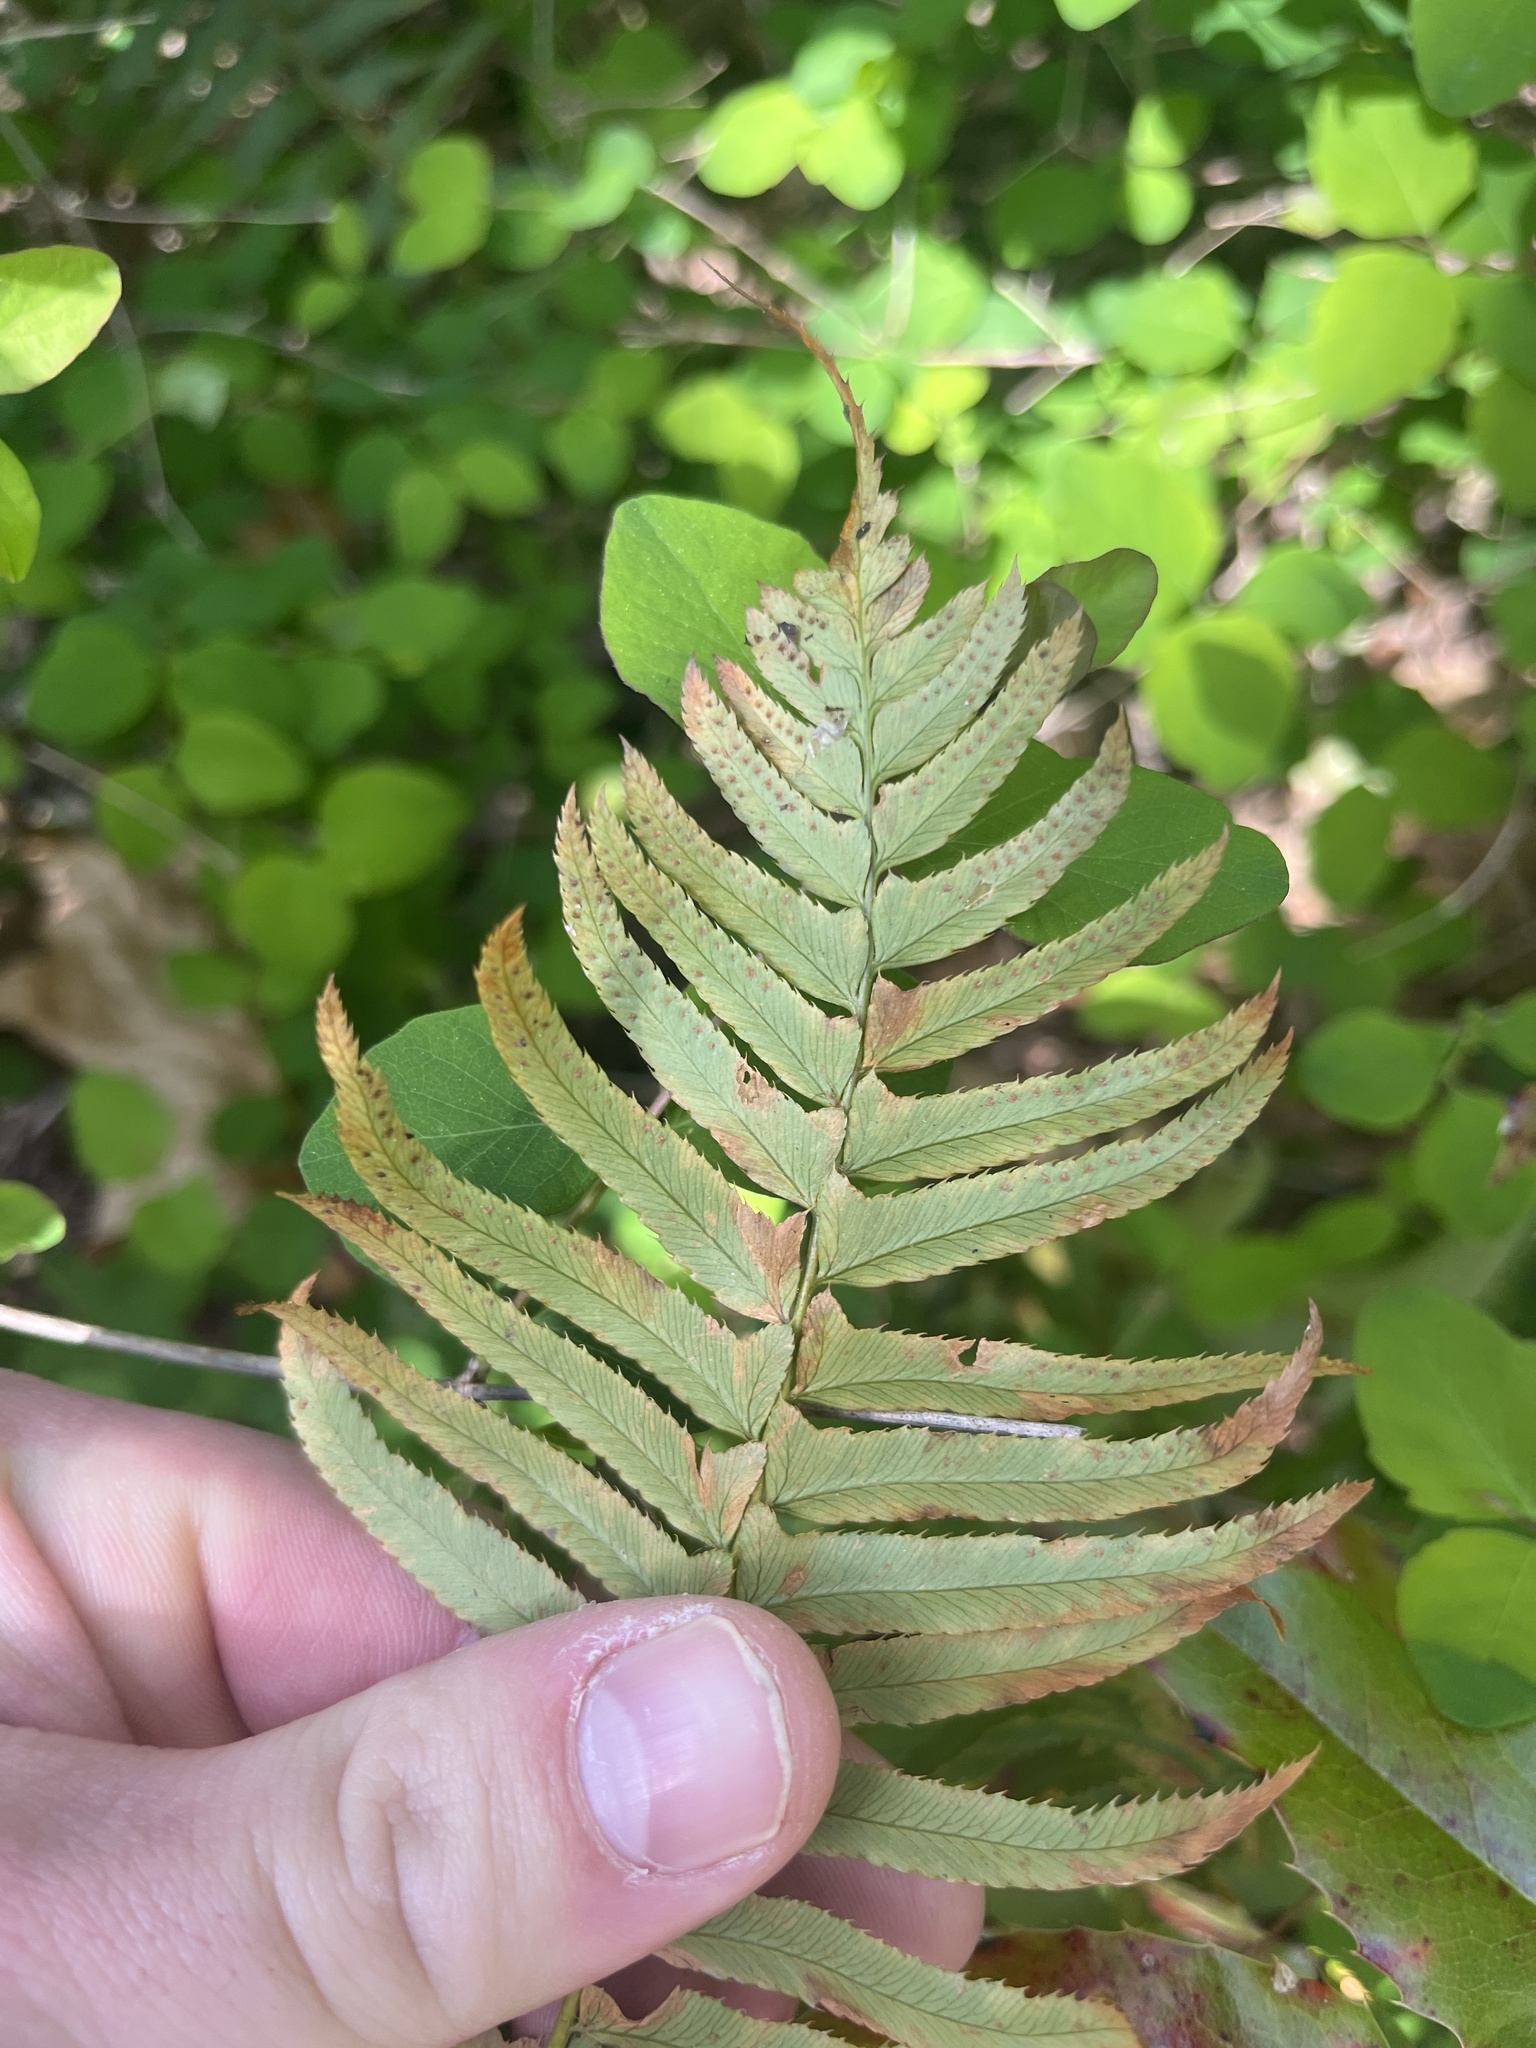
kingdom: Plantae
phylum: Tracheophyta
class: Polypodiopsida
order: Polypodiales
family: Dryopteridaceae
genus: Polystichum
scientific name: Polystichum munitum
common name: Western sword-fern
